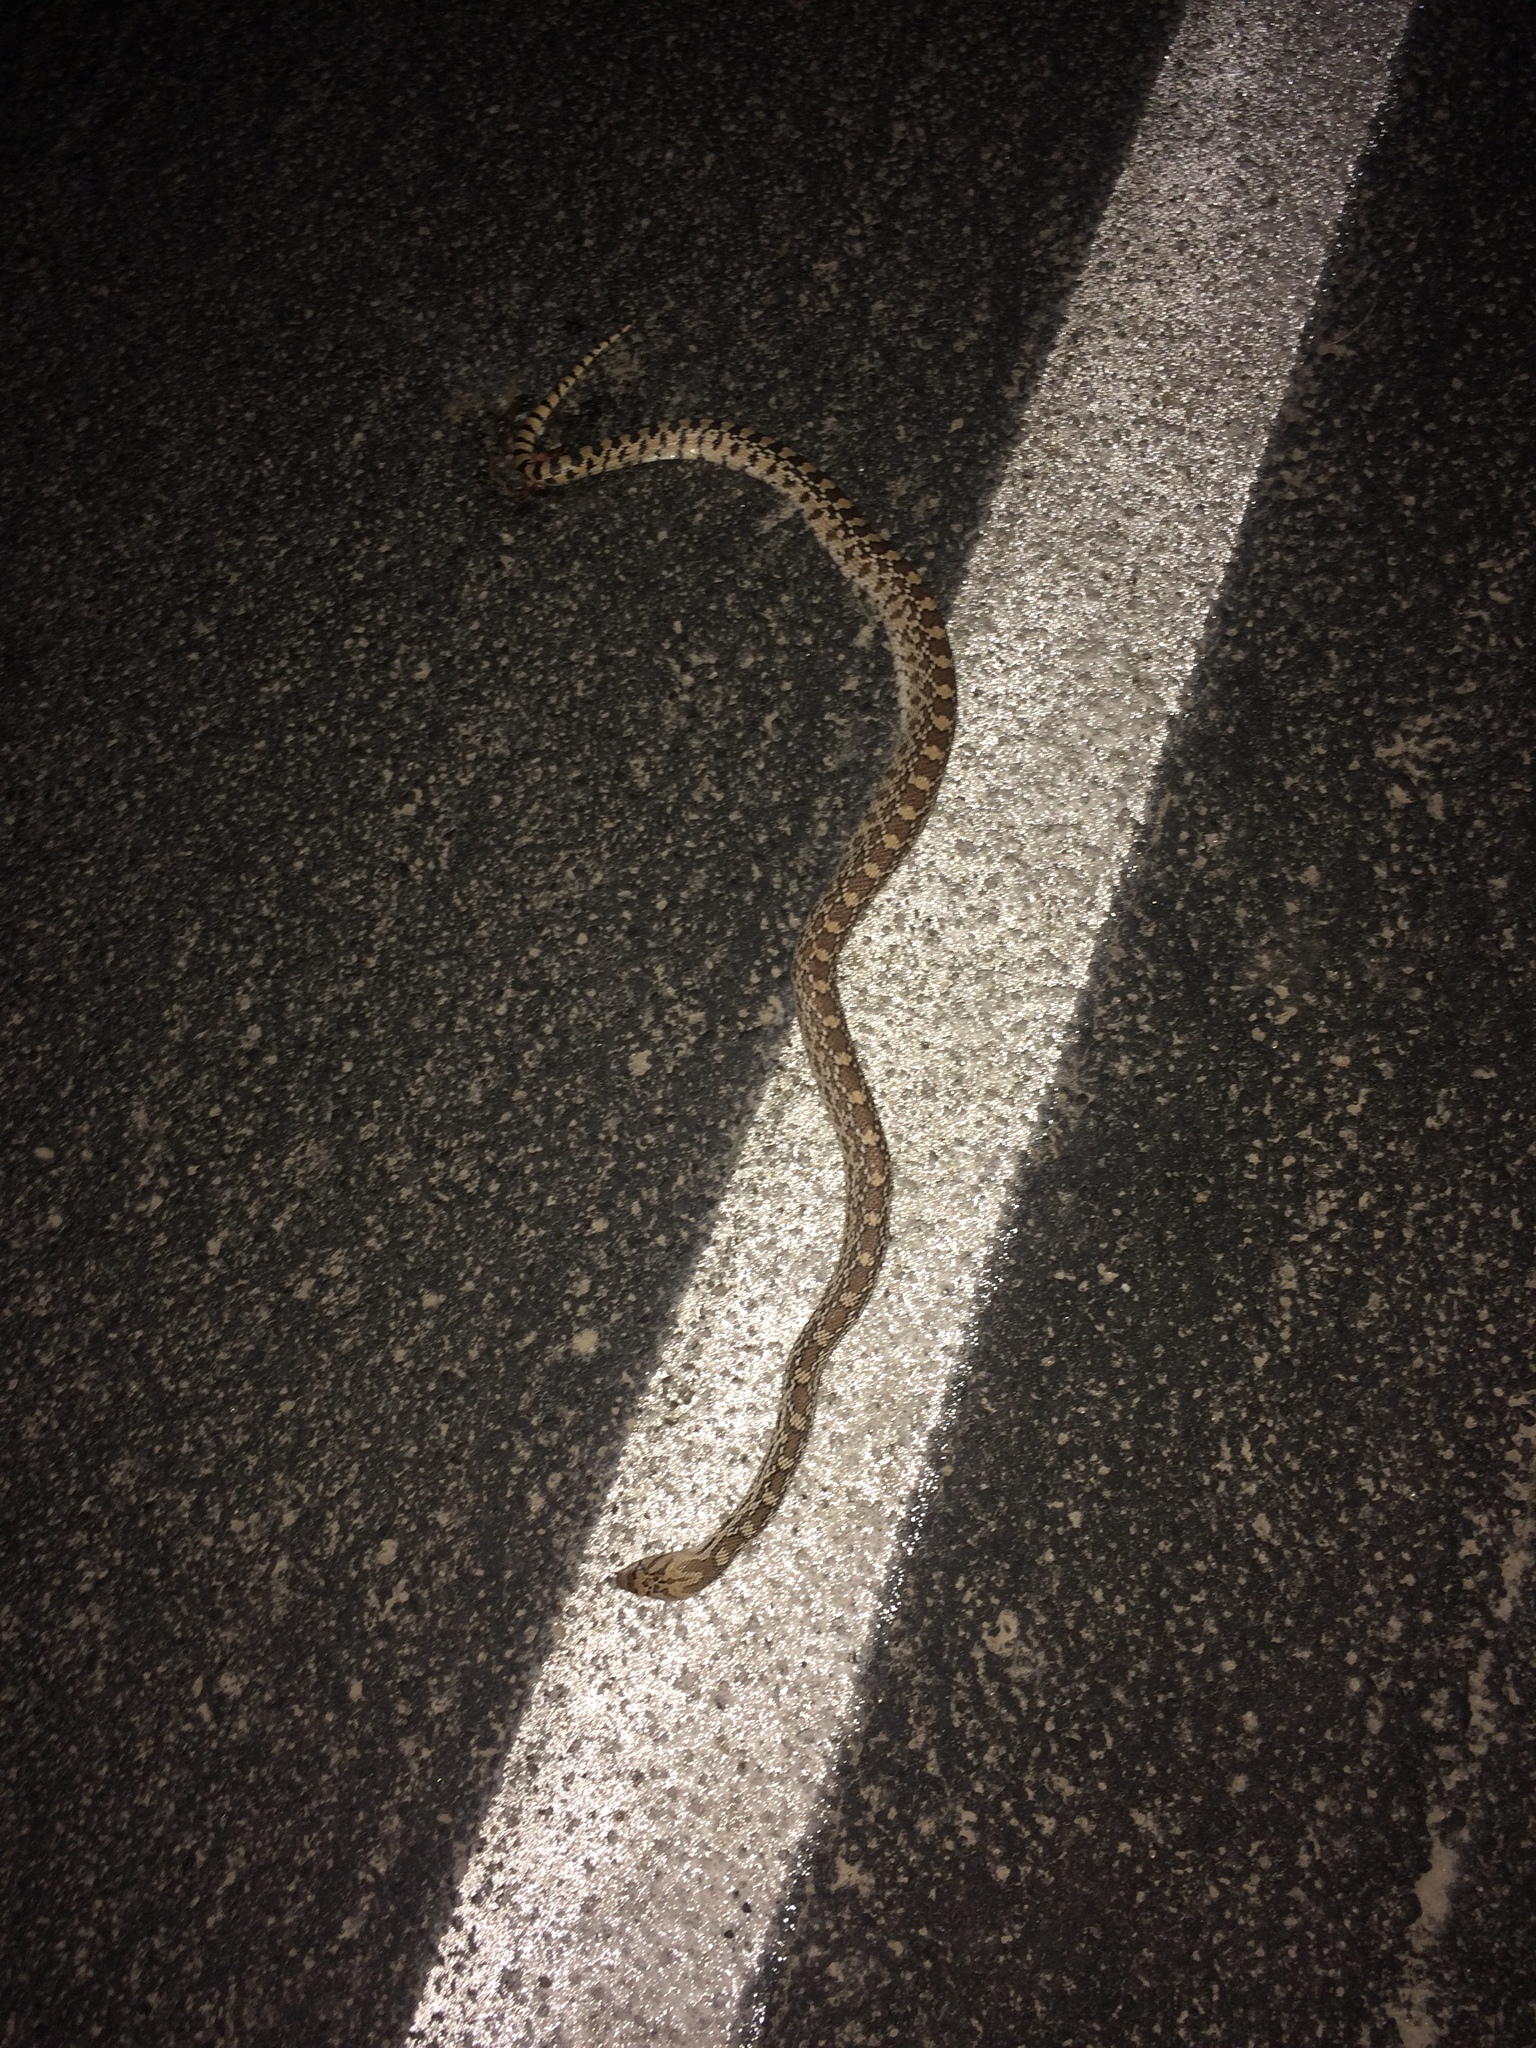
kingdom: Animalia
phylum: Chordata
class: Squamata
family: Colubridae
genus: Pituophis
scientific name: Pituophis catenifer
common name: Gopher snake
